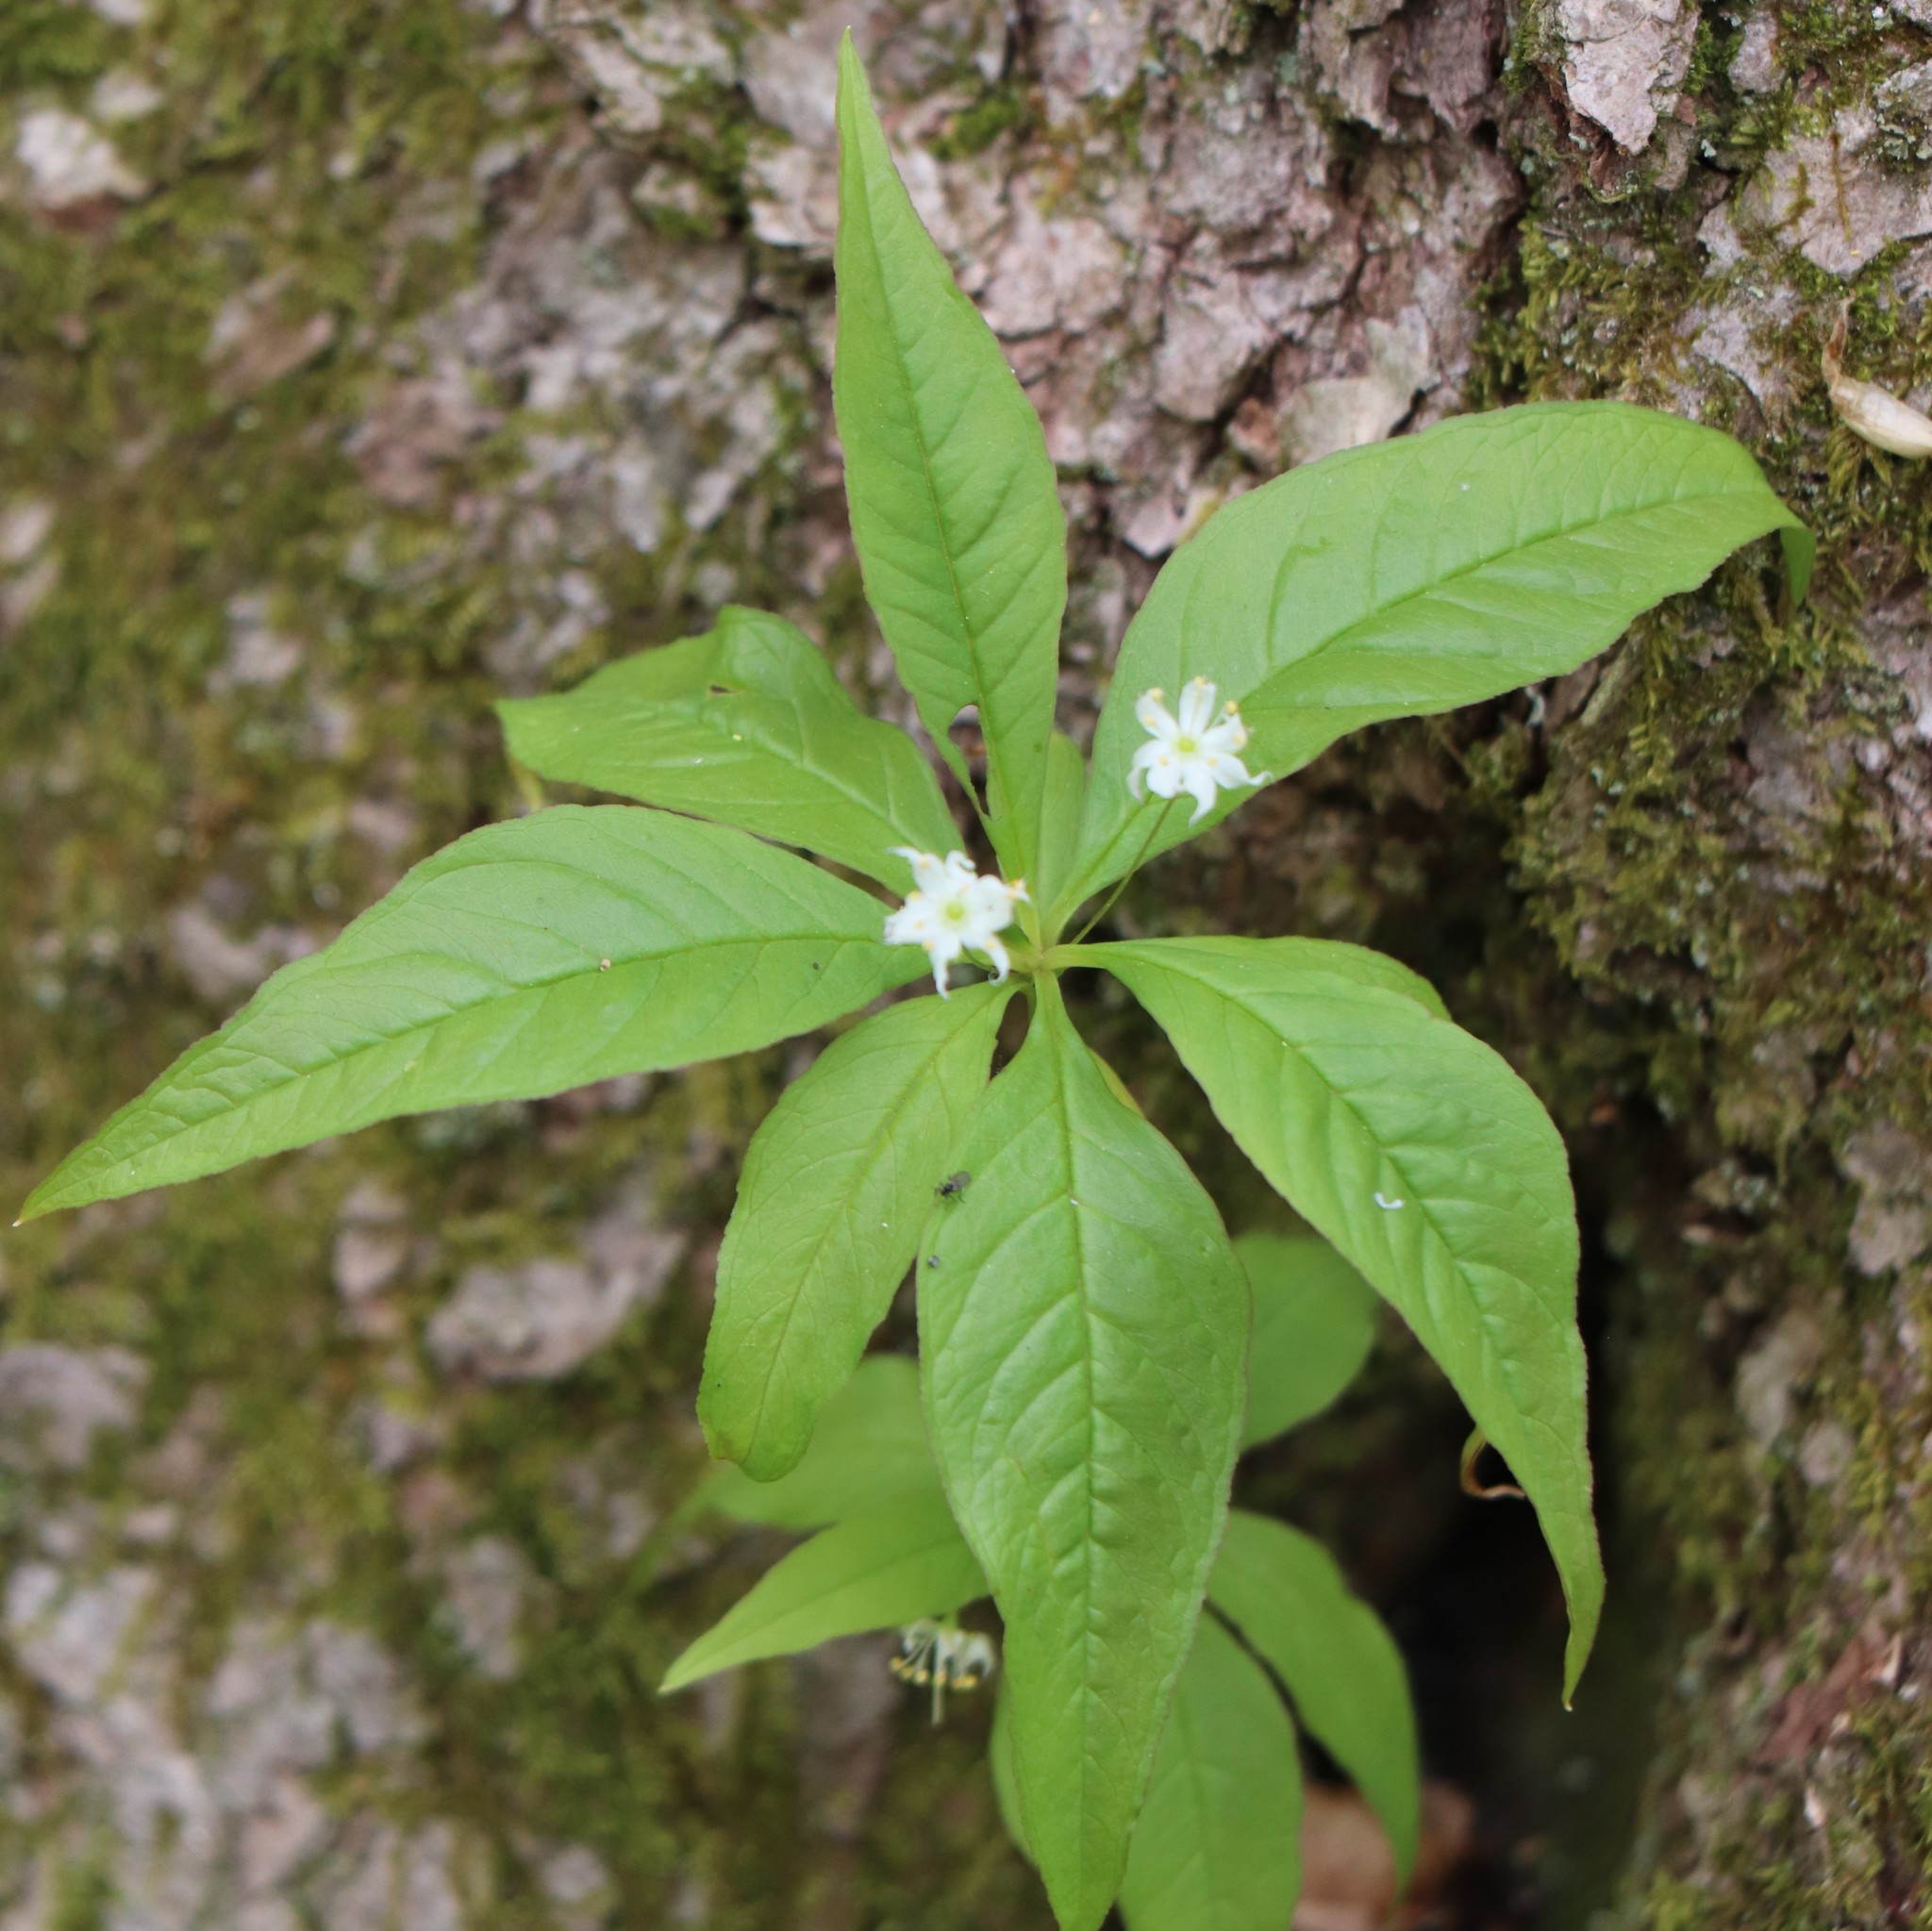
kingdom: Plantae
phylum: Tracheophyta
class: Magnoliopsida
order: Ericales
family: Primulaceae
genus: Lysimachia
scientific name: Lysimachia borealis
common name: American starflower
